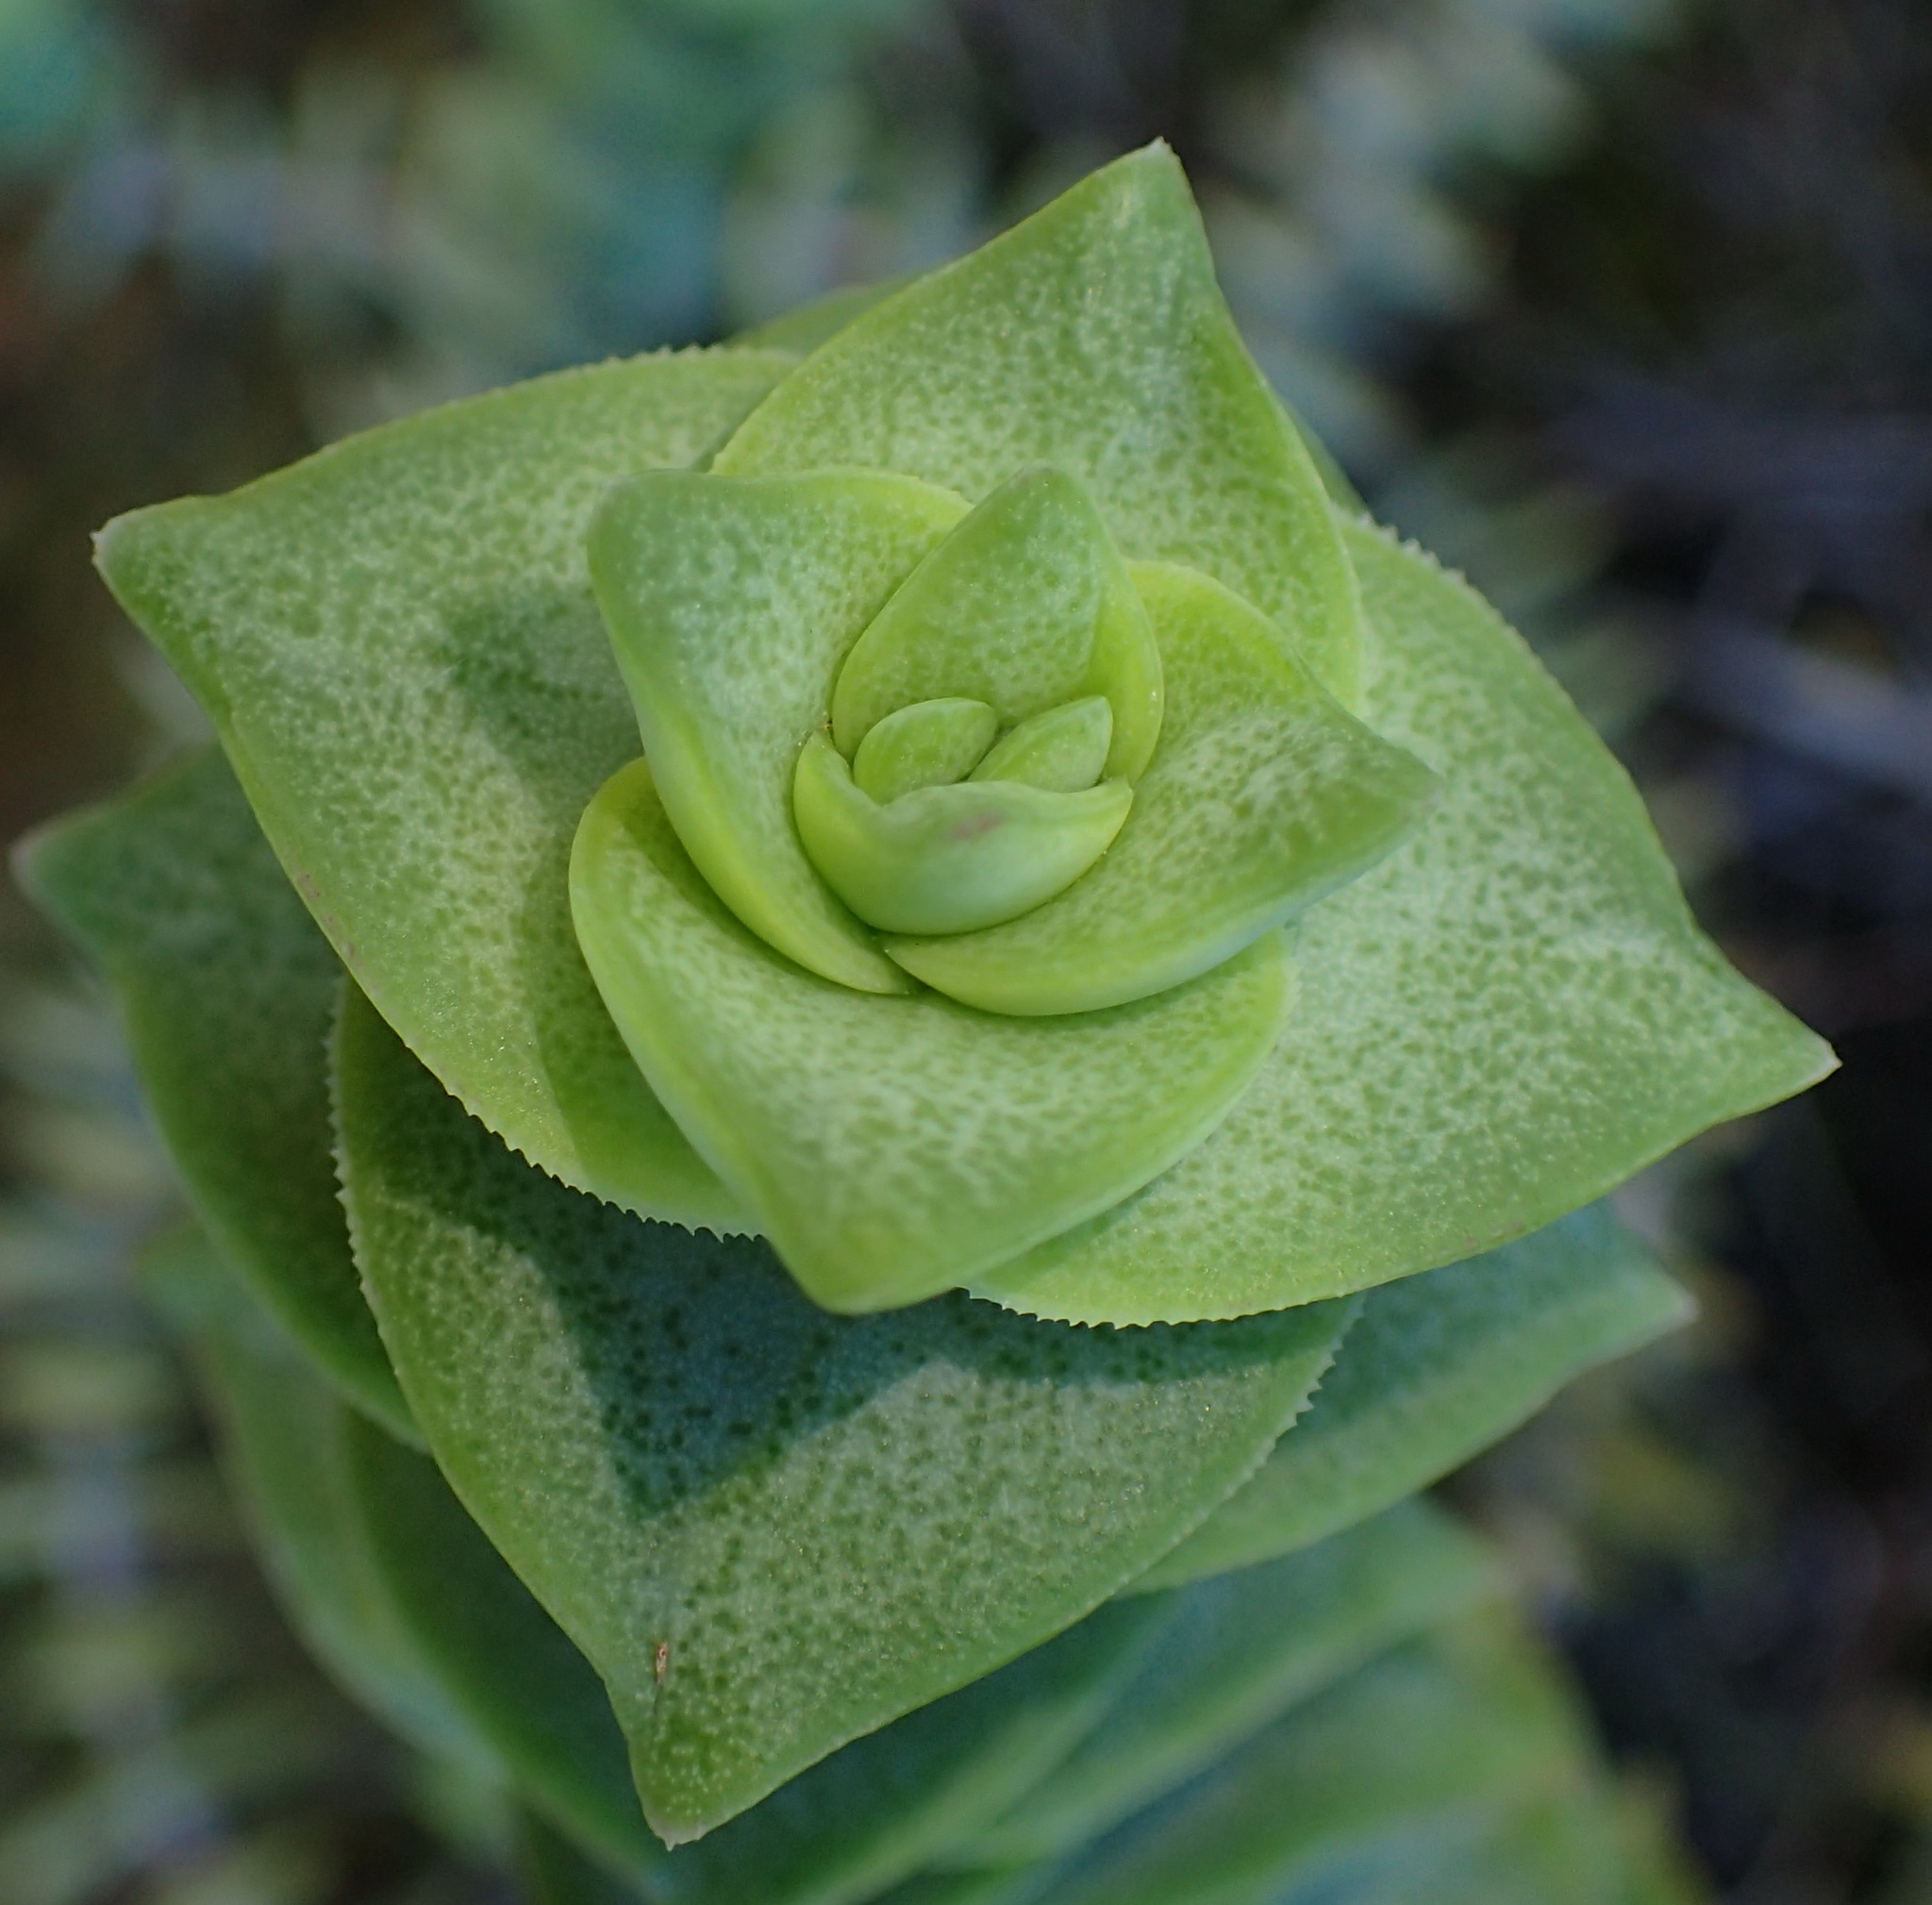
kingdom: Plantae
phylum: Tracheophyta
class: Magnoliopsida
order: Saxifragales
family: Crassulaceae
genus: Crassula
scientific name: Crassula perforata
